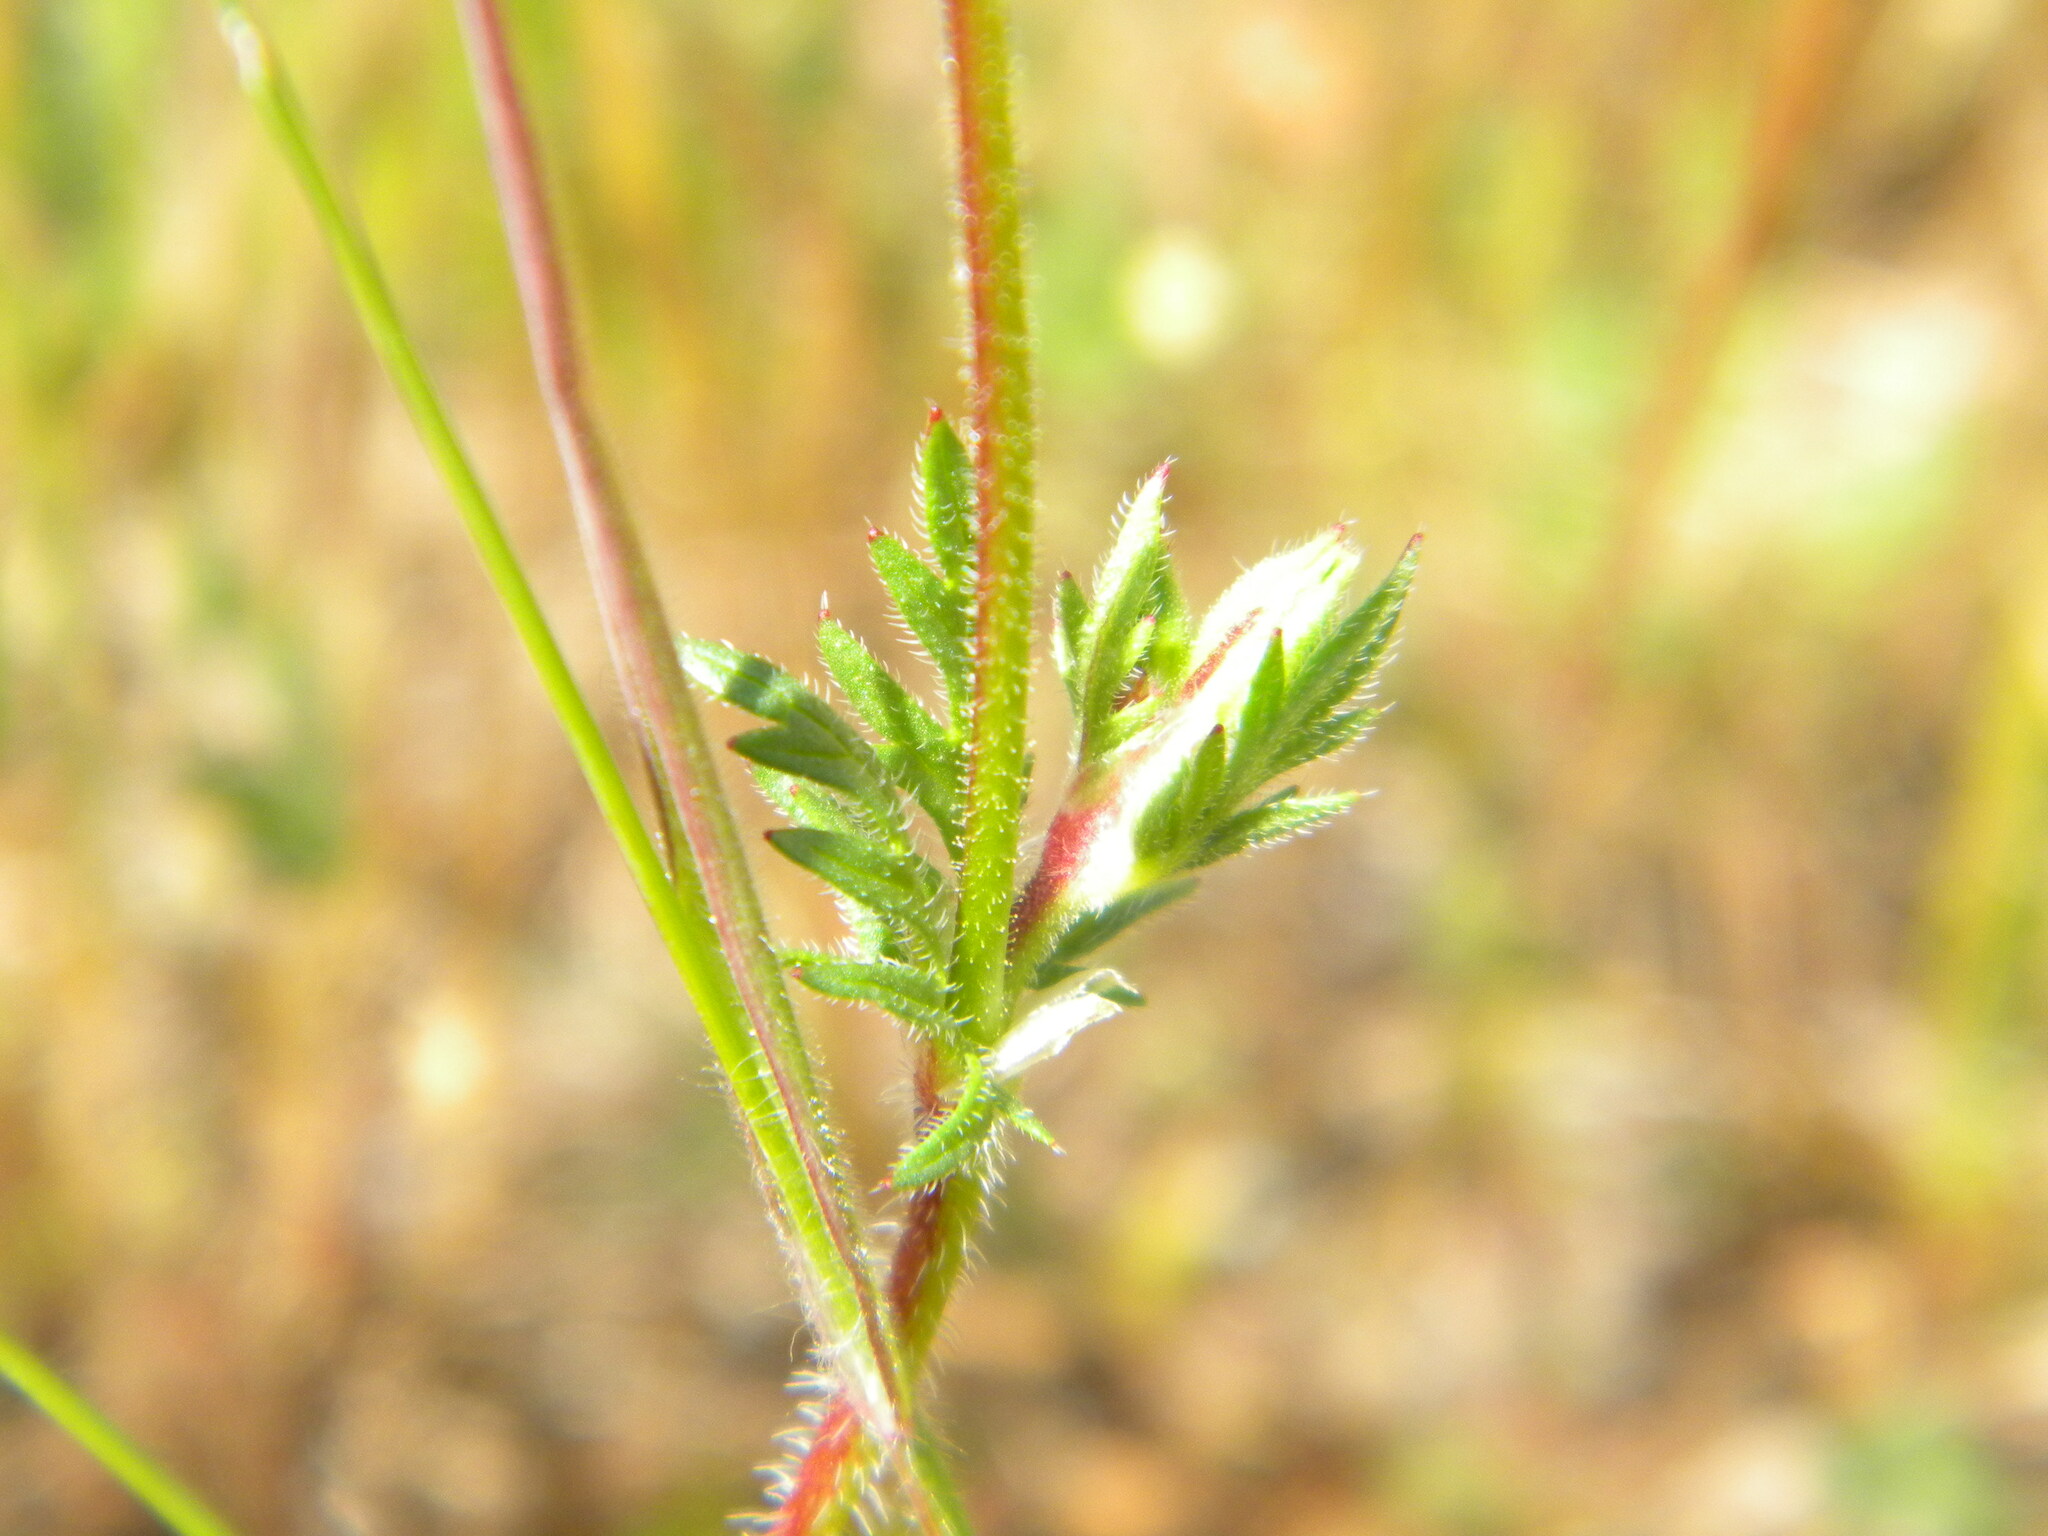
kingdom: Plantae
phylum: Tracheophyta
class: Magnoliopsida
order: Geraniales
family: Geraniaceae
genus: Erodium
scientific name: Erodium botrys
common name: Mediterranean stork's-bill
